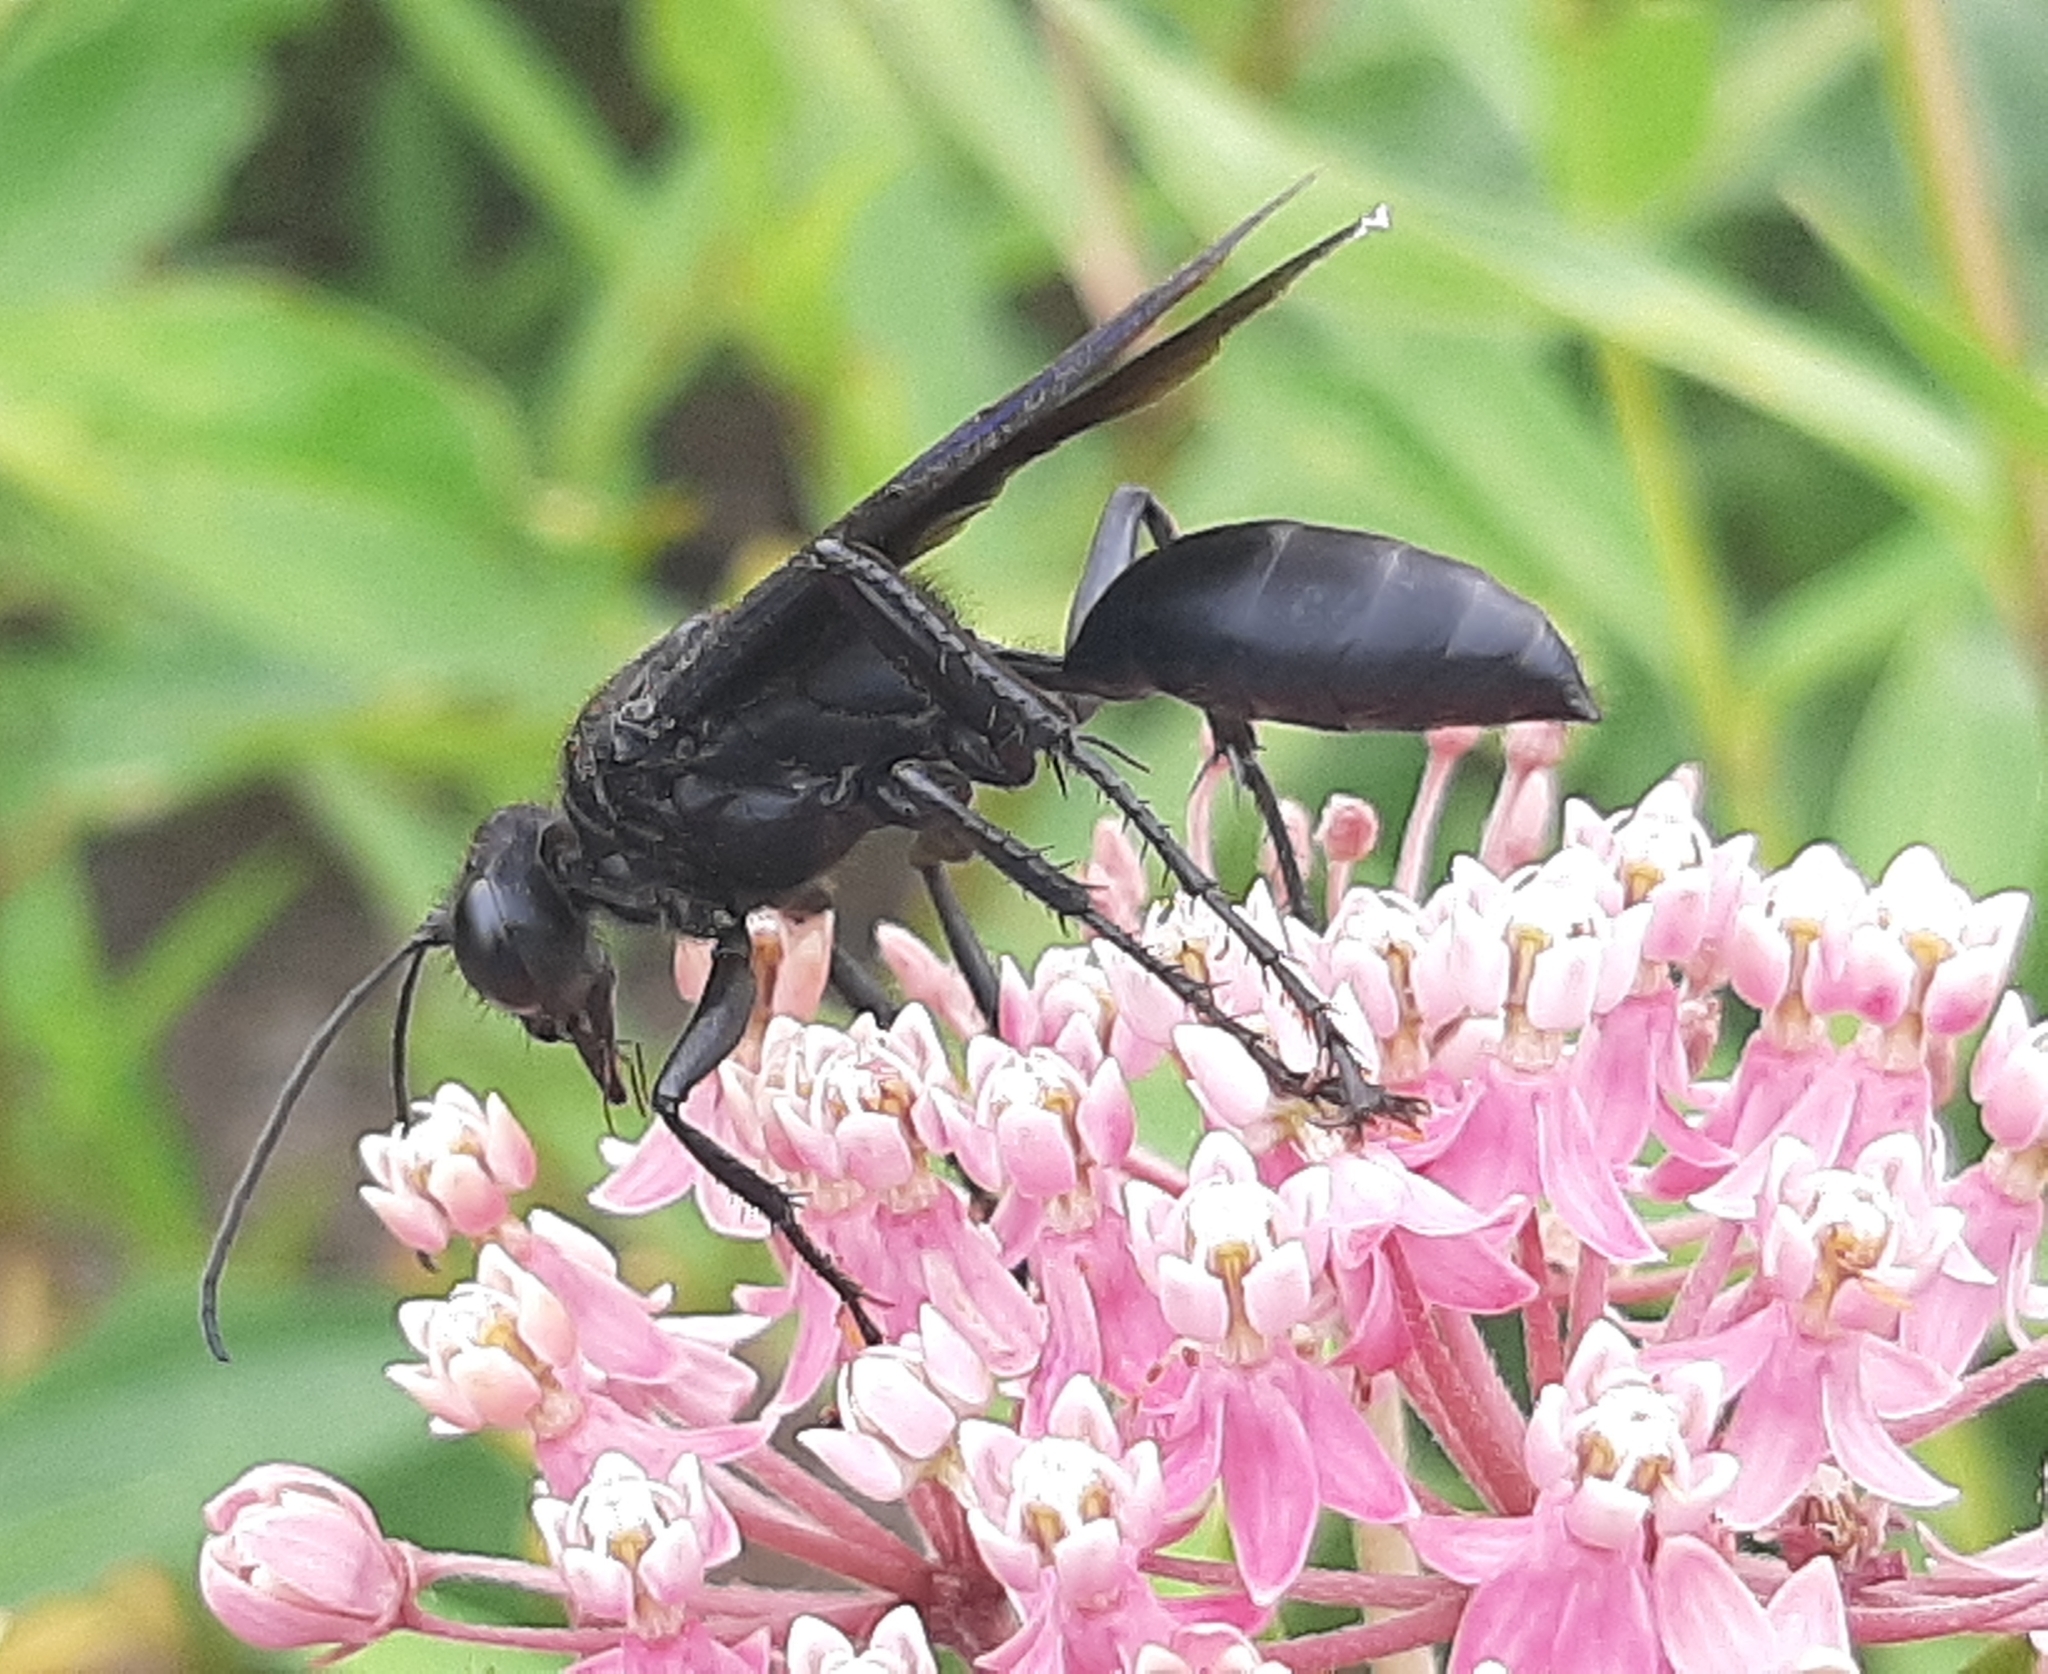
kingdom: Animalia
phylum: Arthropoda
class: Insecta
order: Hymenoptera
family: Sphecidae
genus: Sphex
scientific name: Sphex pensylvanicus
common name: Great black digger wasp
